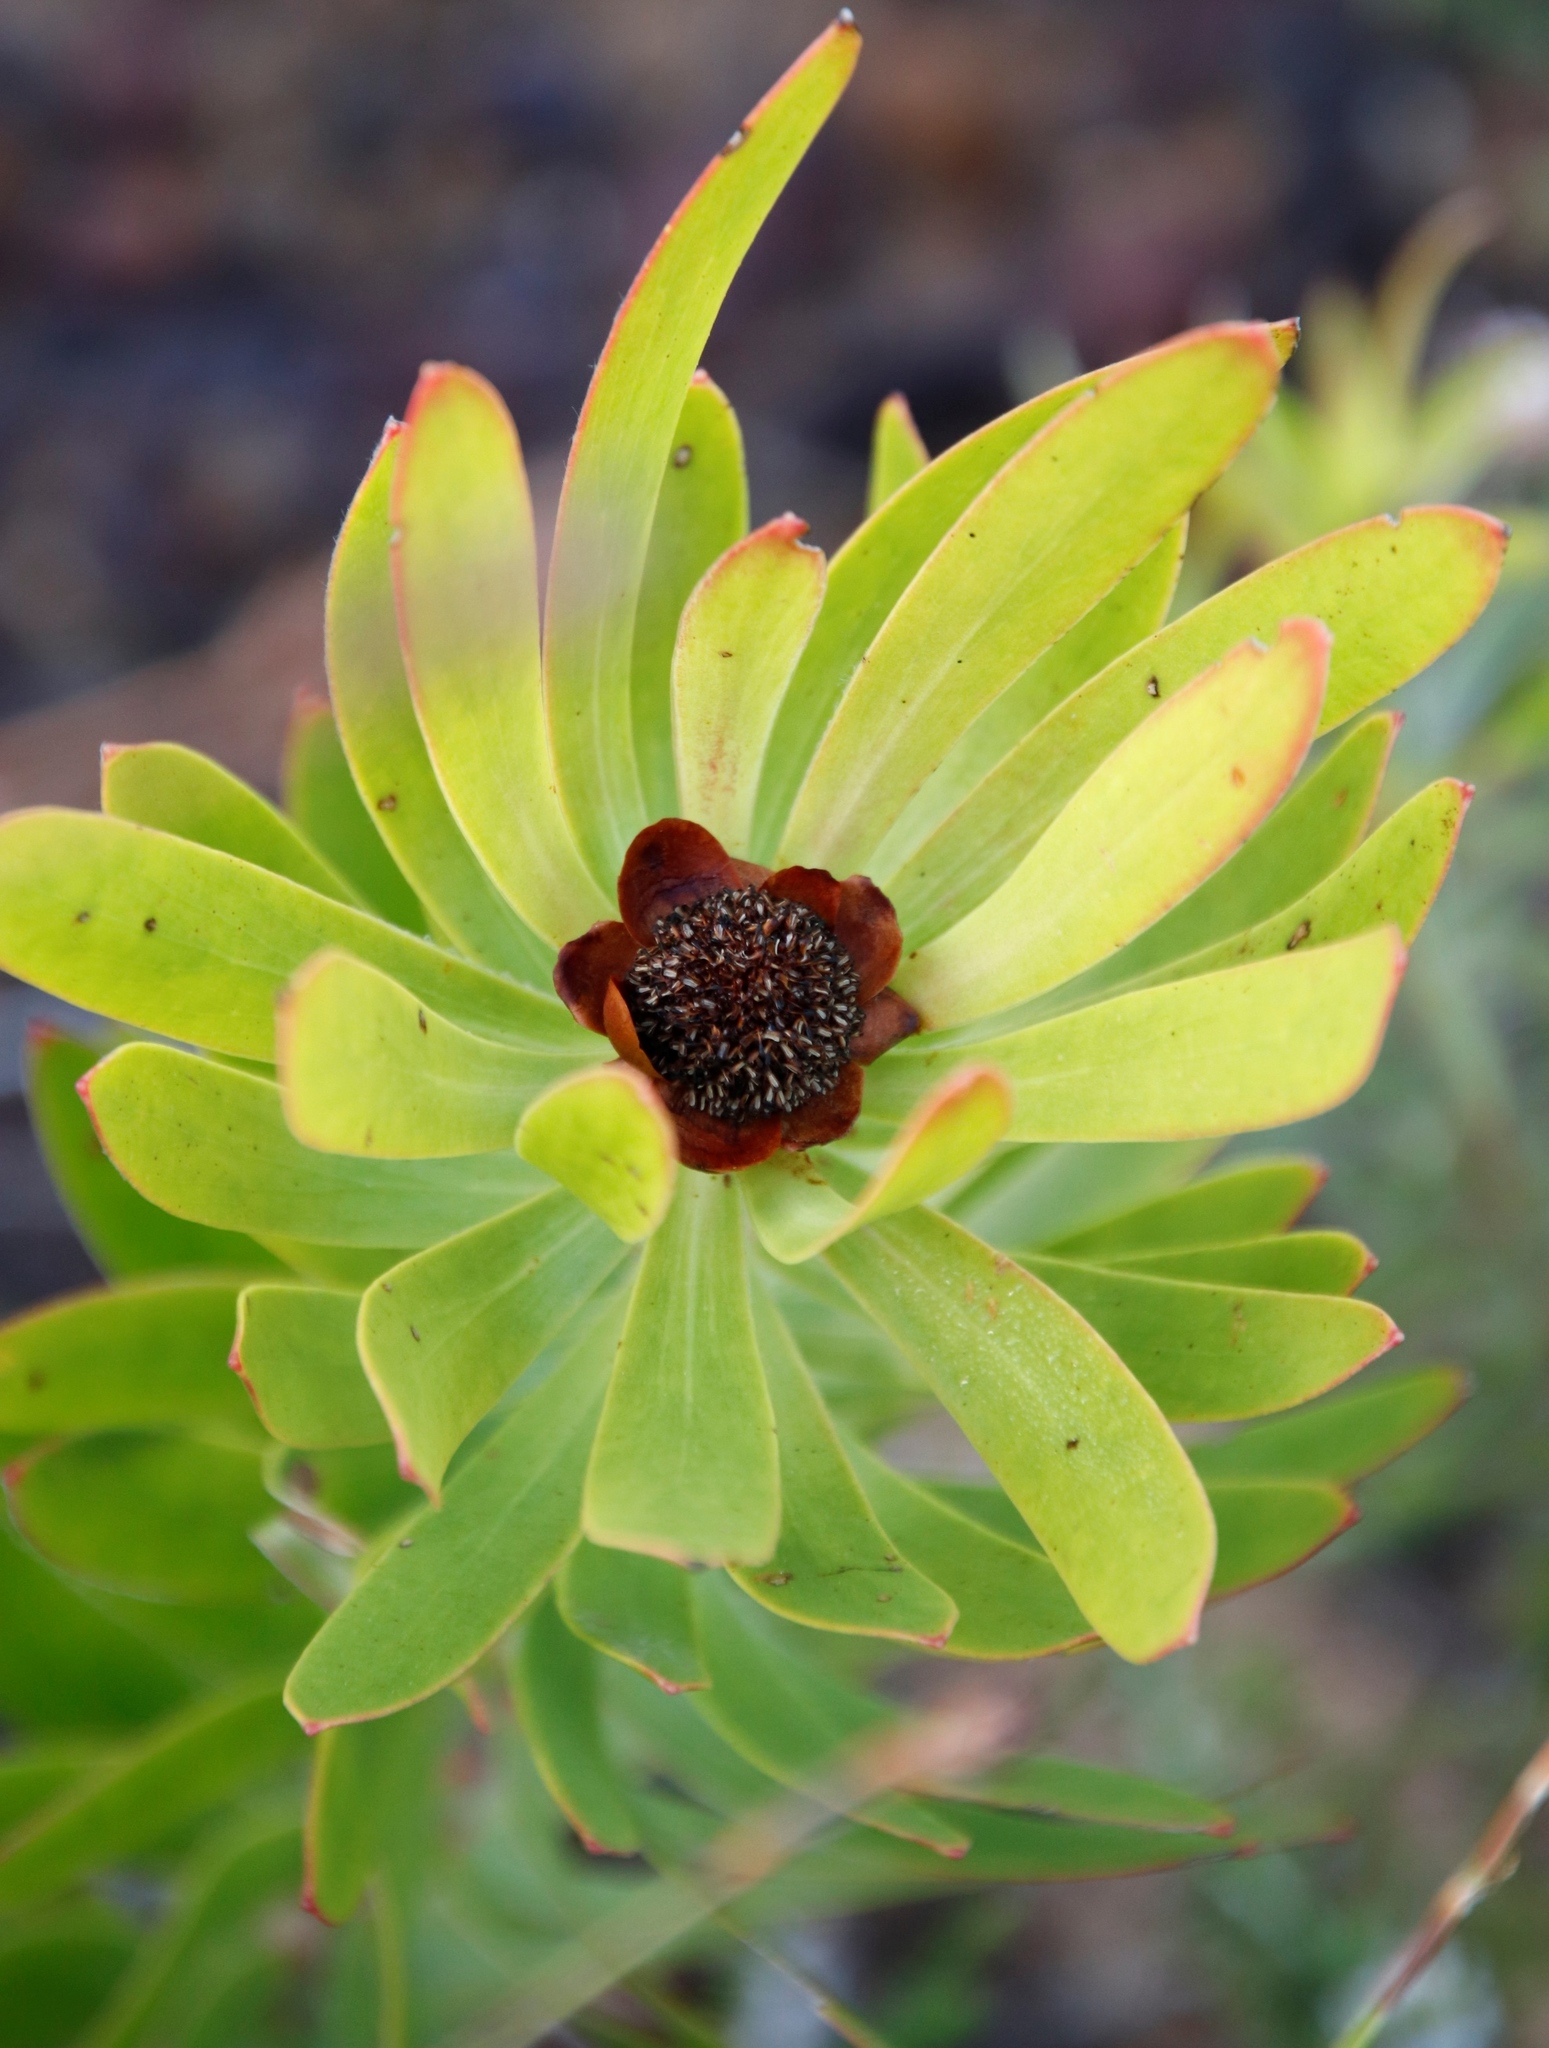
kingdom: Plantae
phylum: Tracheophyta
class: Magnoliopsida
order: Proteales
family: Proteaceae
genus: Leucadendron
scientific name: Leucadendron microcephalum
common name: Oilbract conebush
